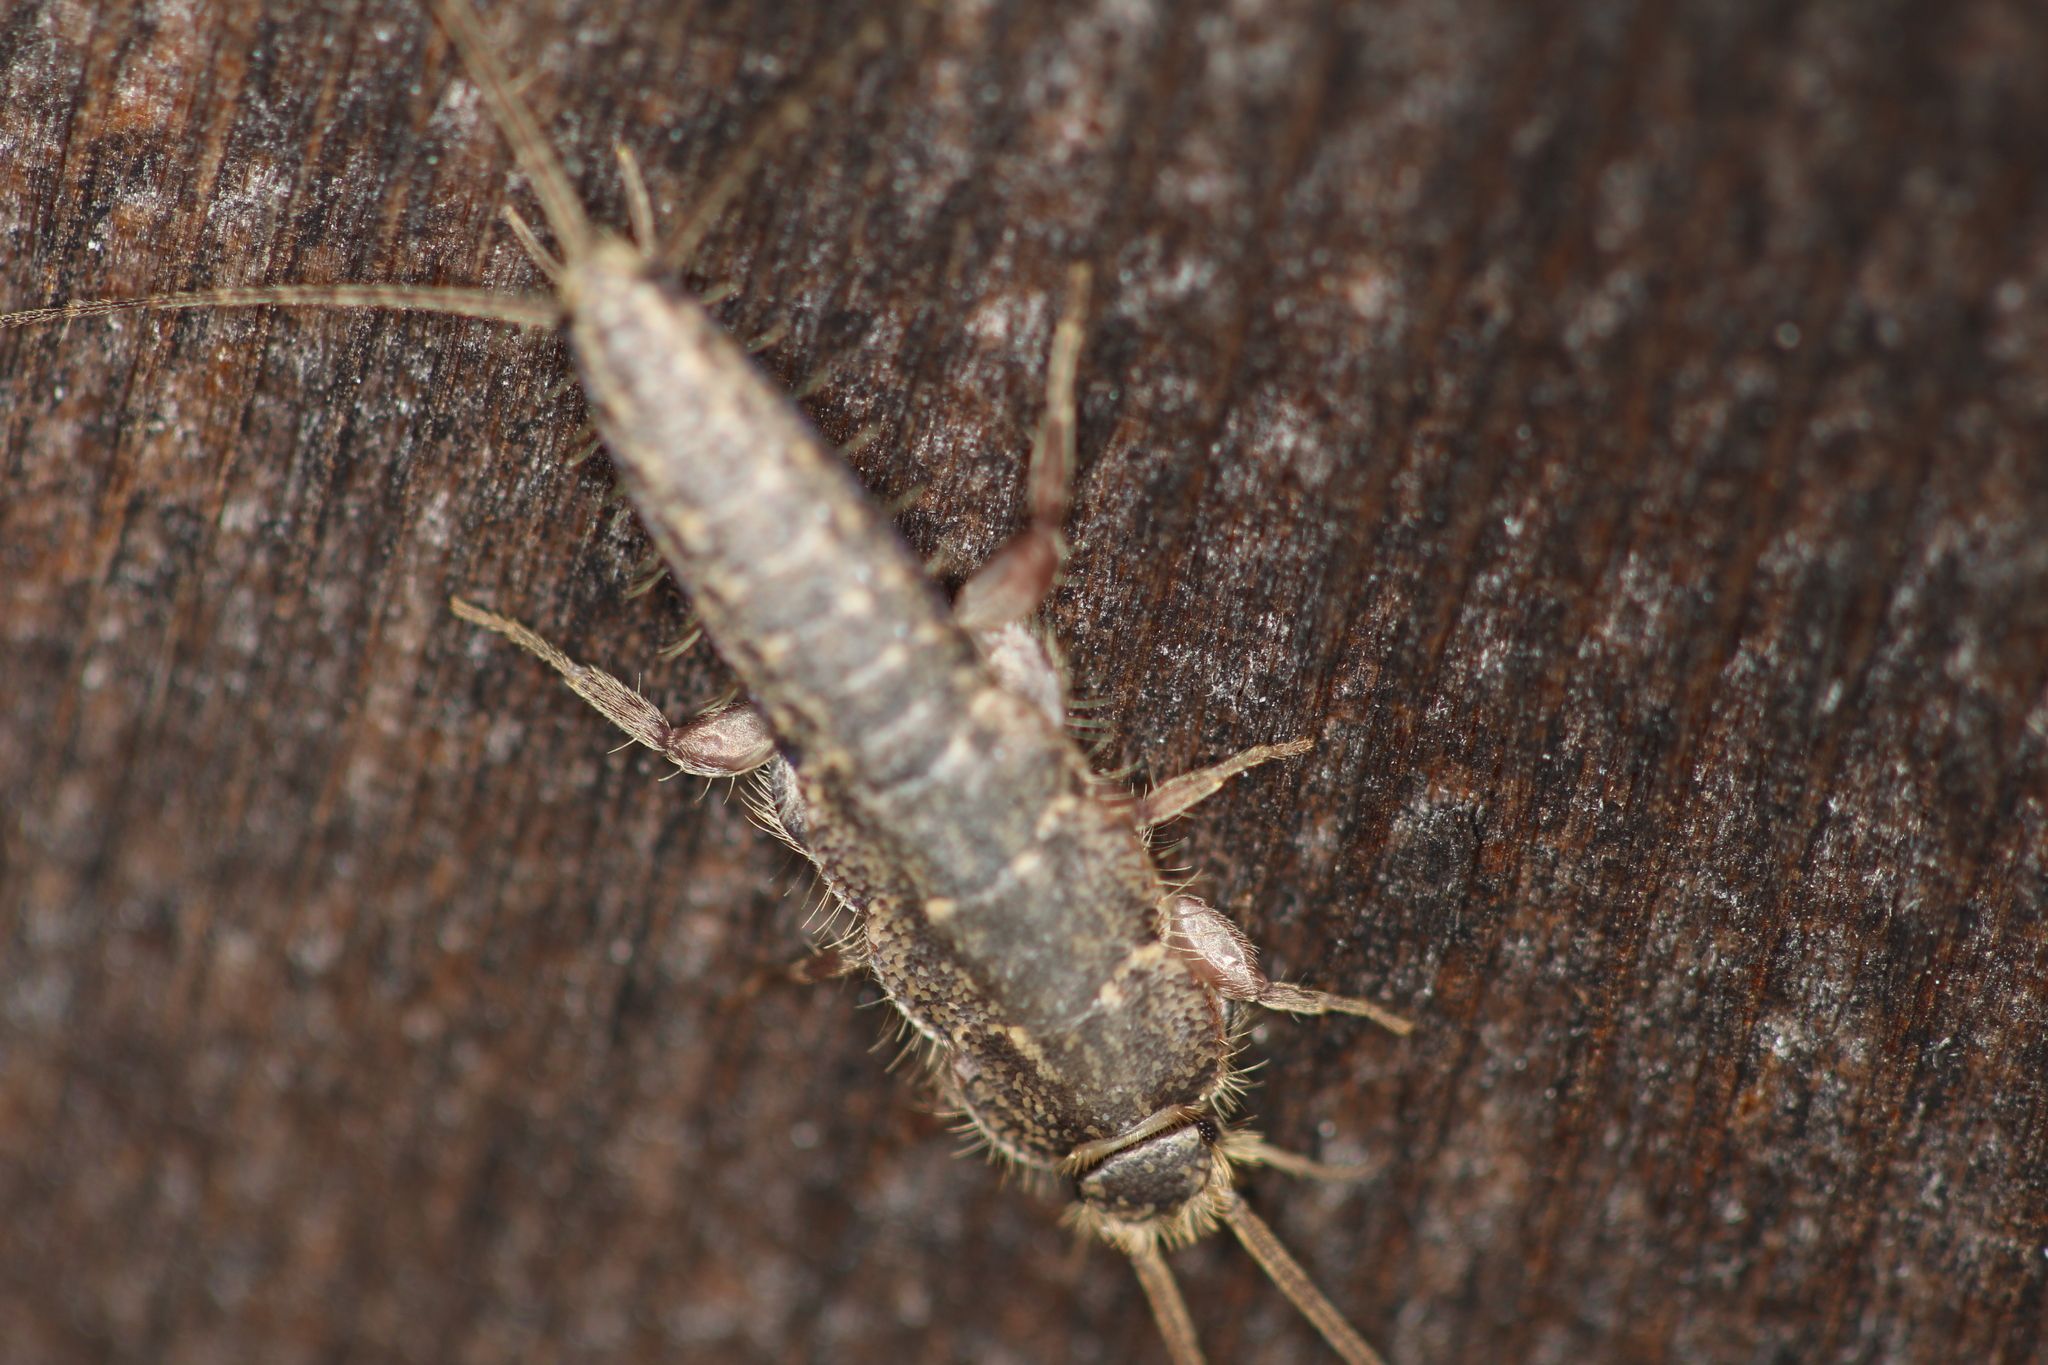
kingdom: Animalia
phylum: Arthropoda
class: Insecta
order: Zygentoma
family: Lepismatidae
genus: Ctenolepisma
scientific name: Ctenolepisma lineata
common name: Four-lined silverfish
